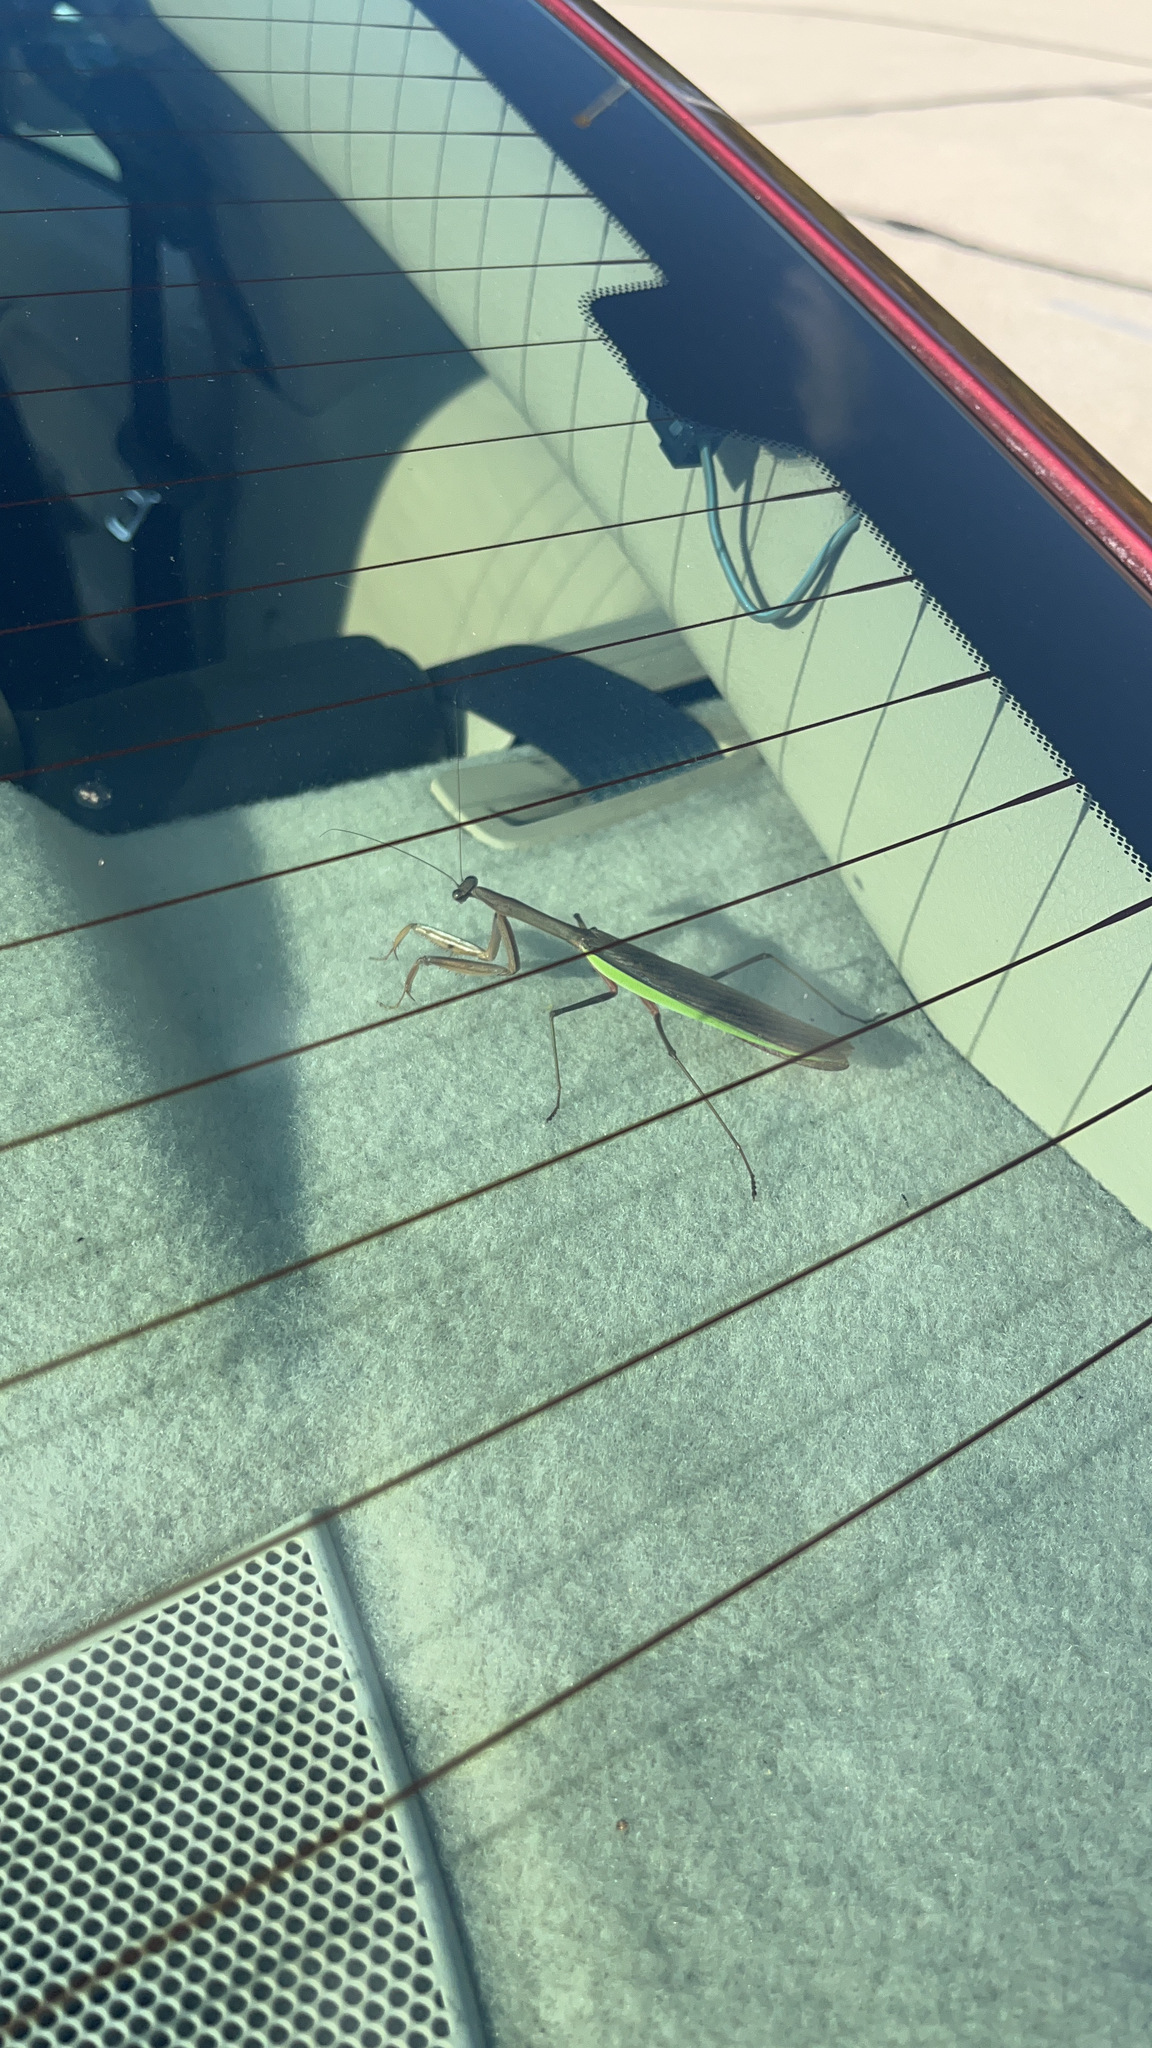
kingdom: Animalia
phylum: Arthropoda
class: Insecta
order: Mantodea
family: Mantidae
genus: Tenodera
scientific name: Tenodera sinensis
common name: Chinese mantis
